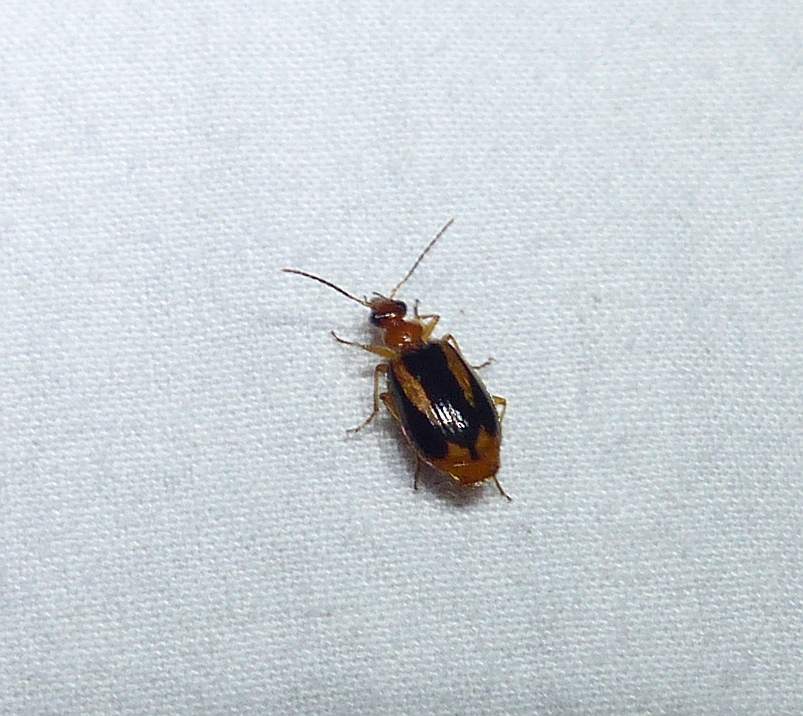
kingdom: Animalia
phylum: Arthropoda
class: Insecta
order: Coleoptera
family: Carabidae
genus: Lebia
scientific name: Lebia solea
